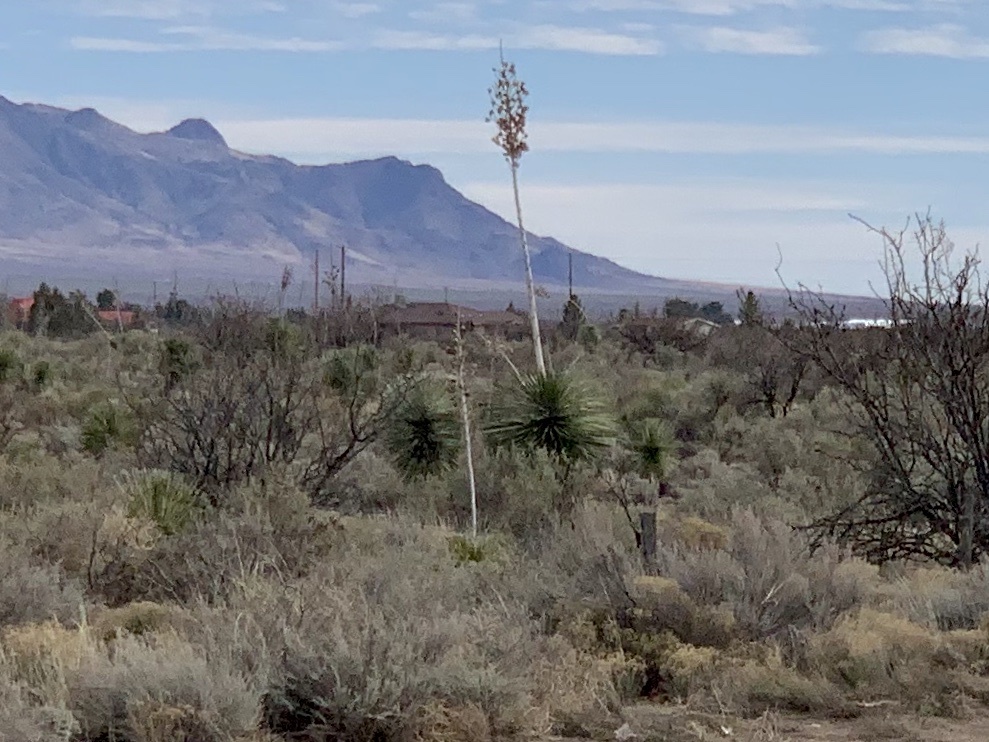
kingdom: Plantae
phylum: Tracheophyta
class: Liliopsida
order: Asparagales
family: Asparagaceae
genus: Yucca
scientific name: Yucca elata
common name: Palmella
